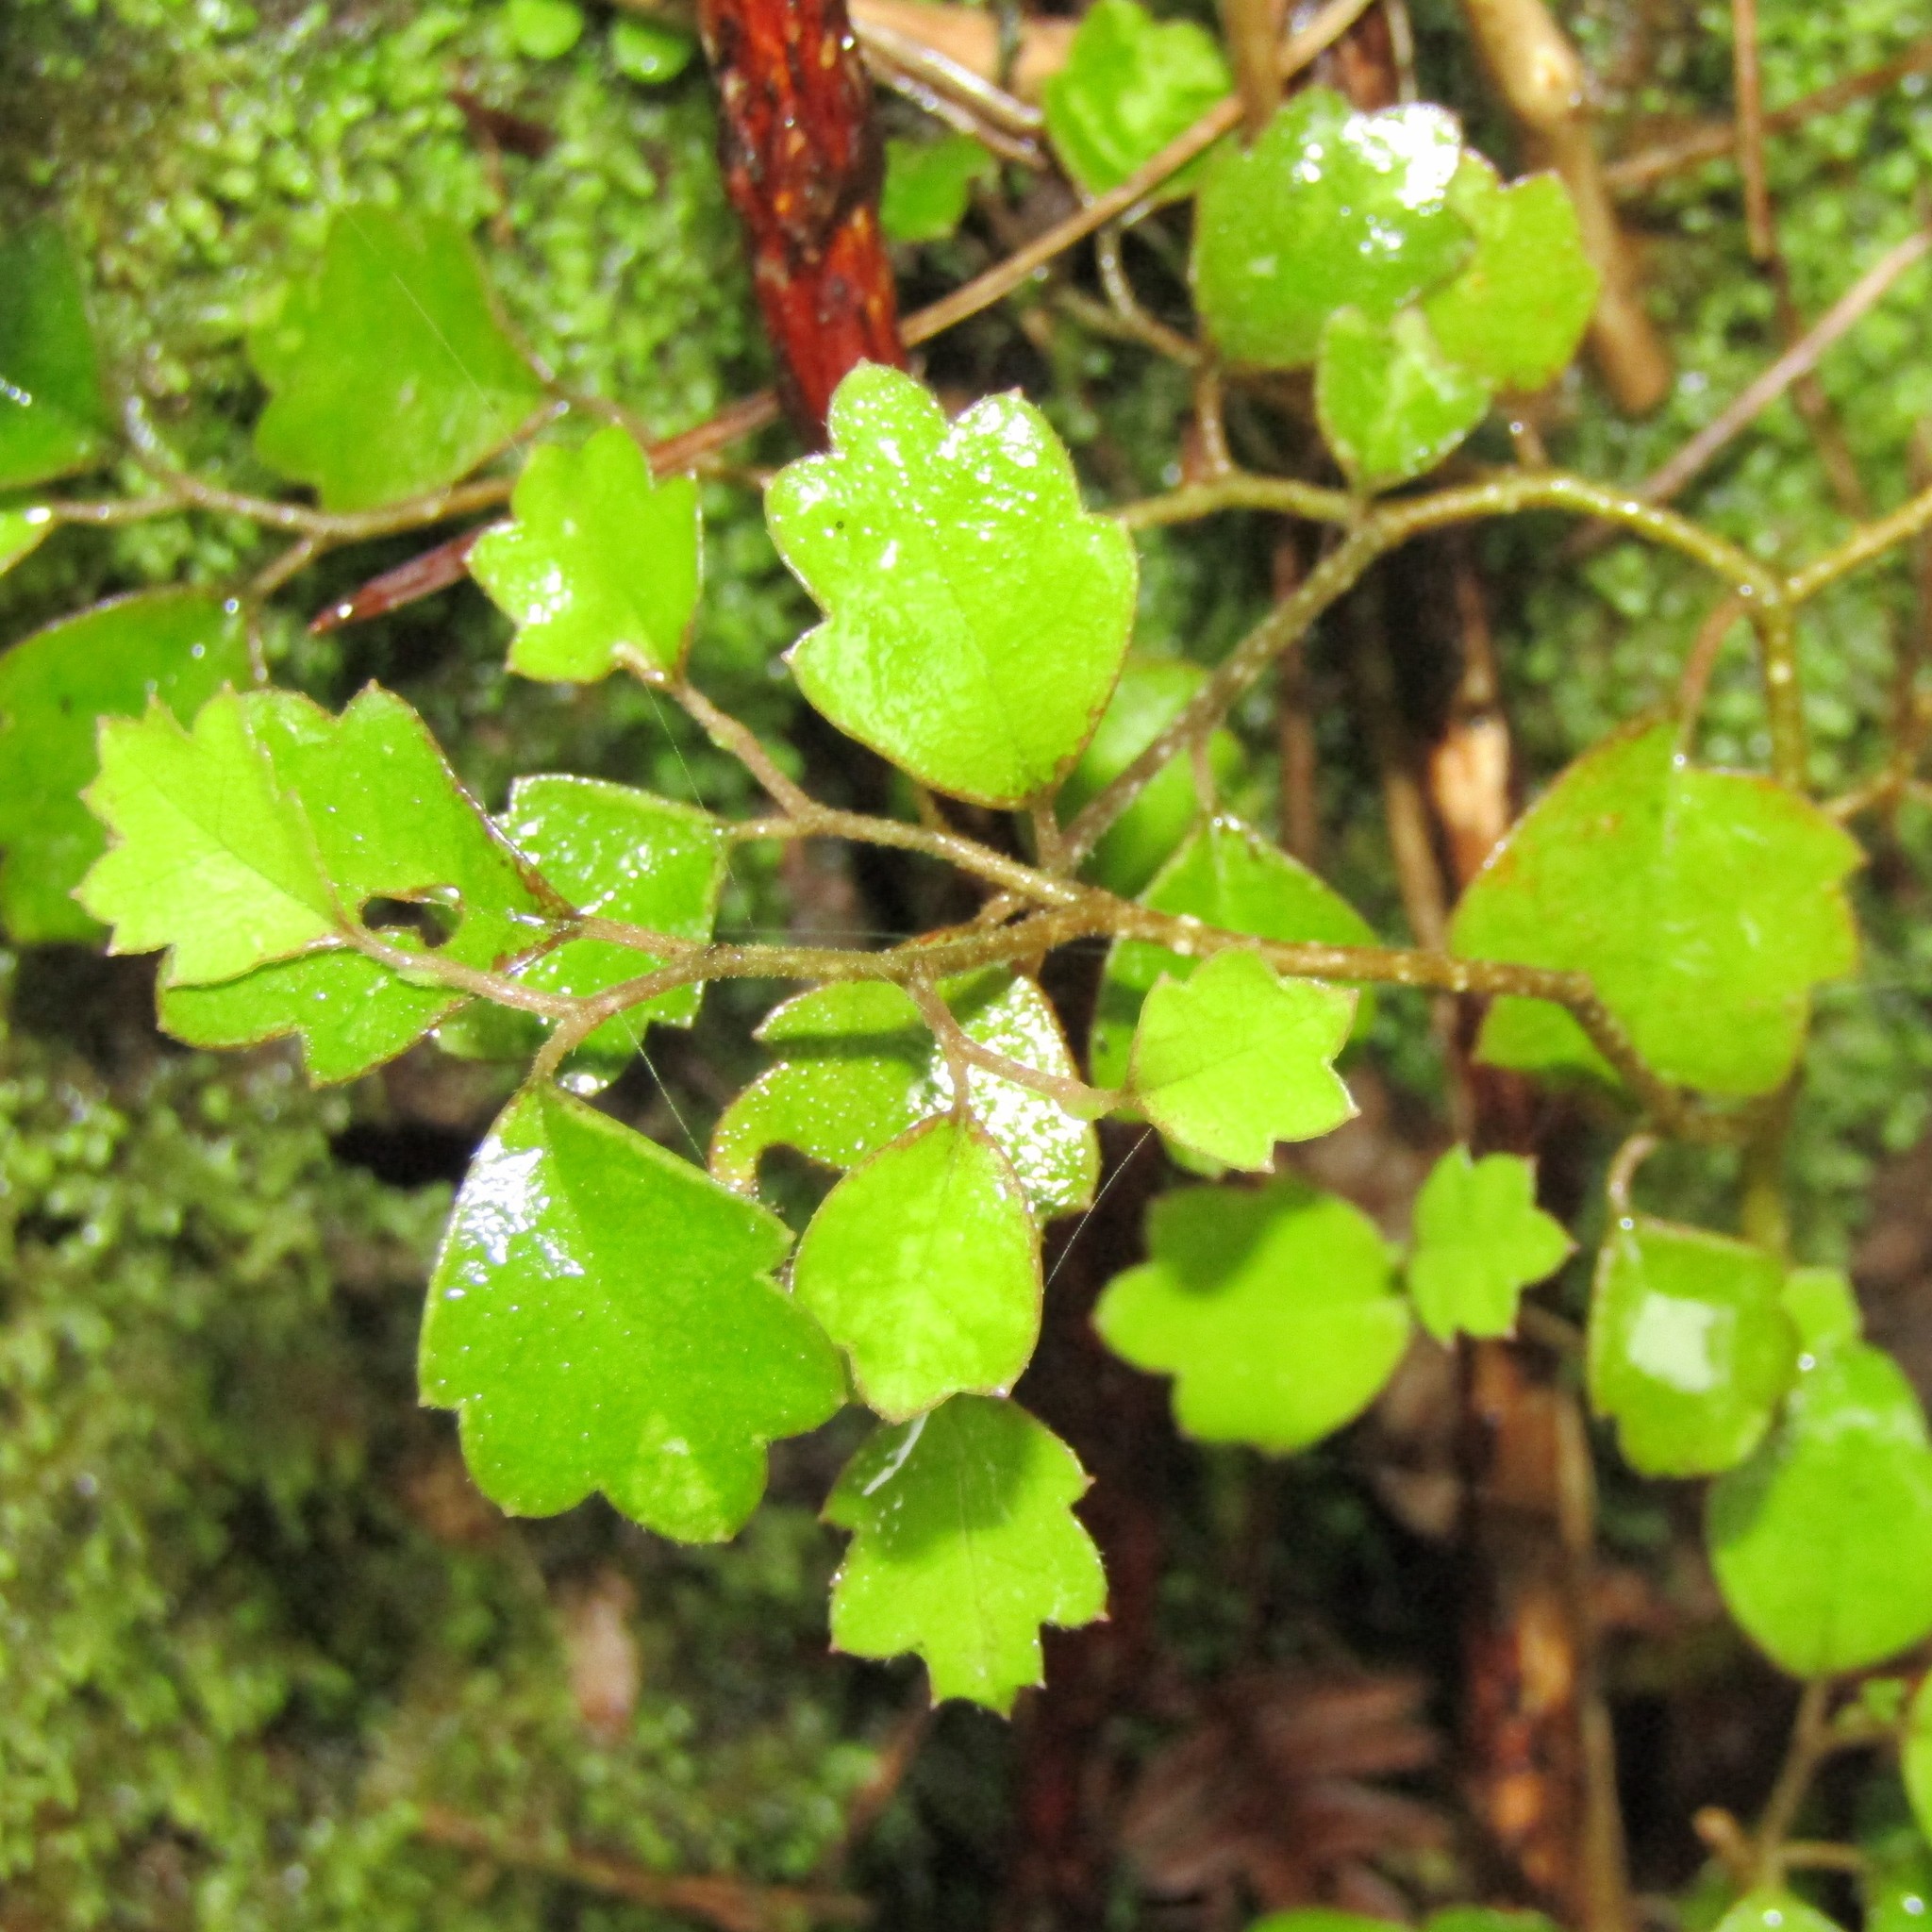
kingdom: Plantae
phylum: Tracheophyta
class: Magnoliopsida
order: Apiales
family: Pennantiaceae
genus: Pennantia
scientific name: Pennantia corymbosa
